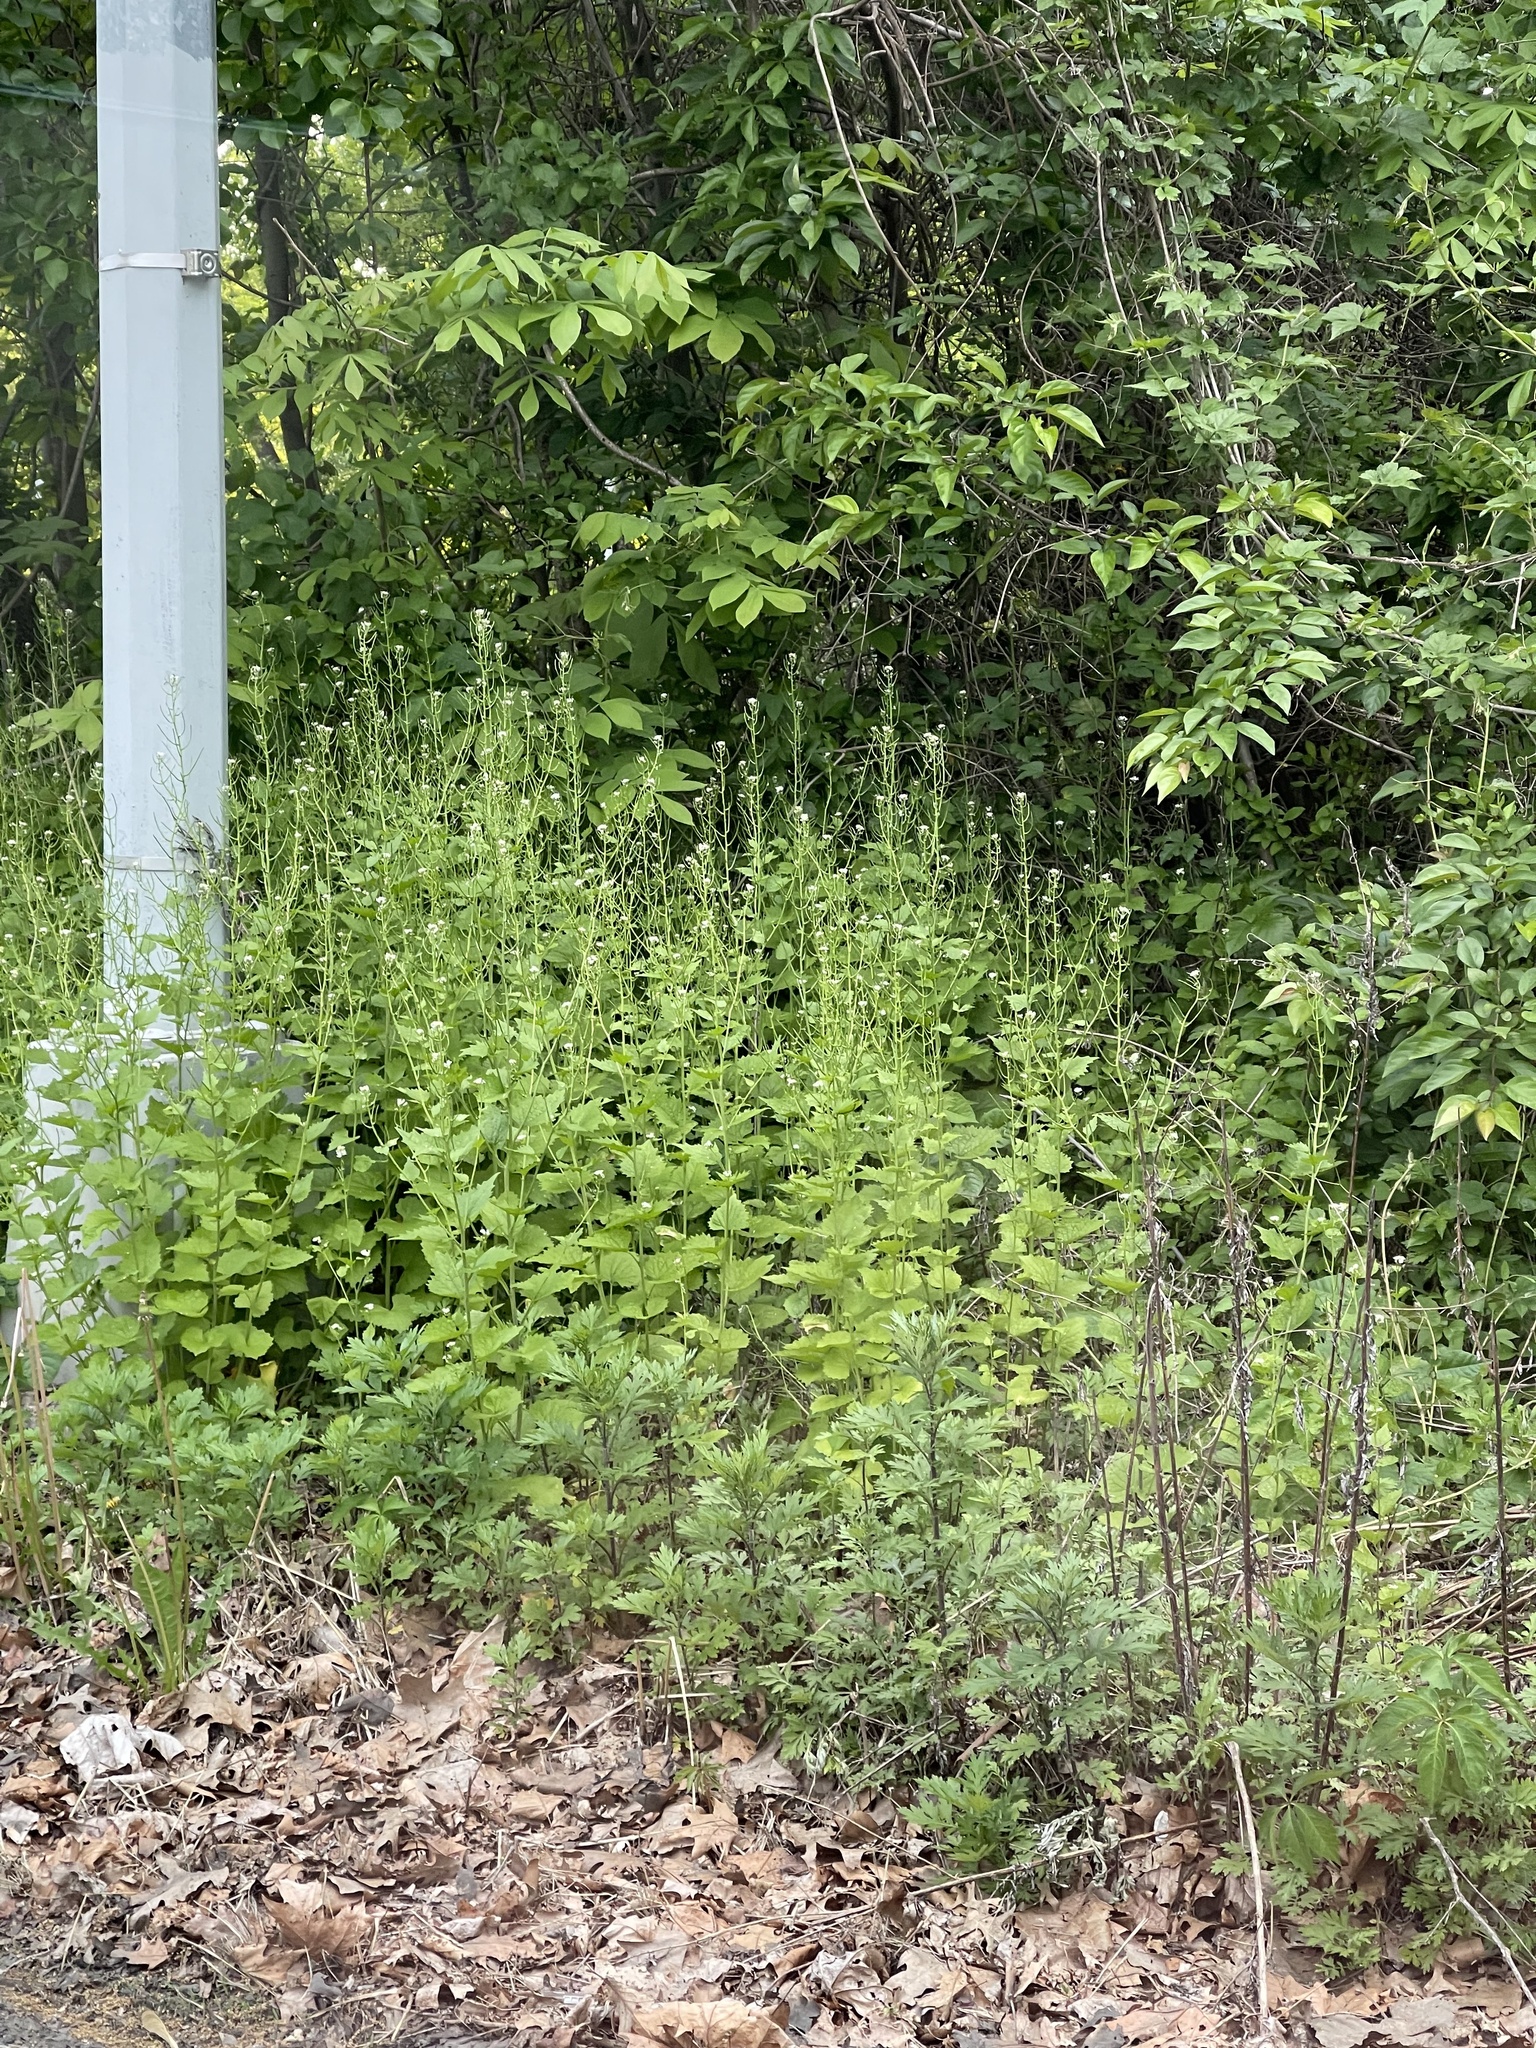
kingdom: Plantae
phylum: Tracheophyta
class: Magnoliopsida
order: Brassicales
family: Brassicaceae
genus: Alliaria
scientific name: Alliaria petiolata
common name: Garlic mustard
